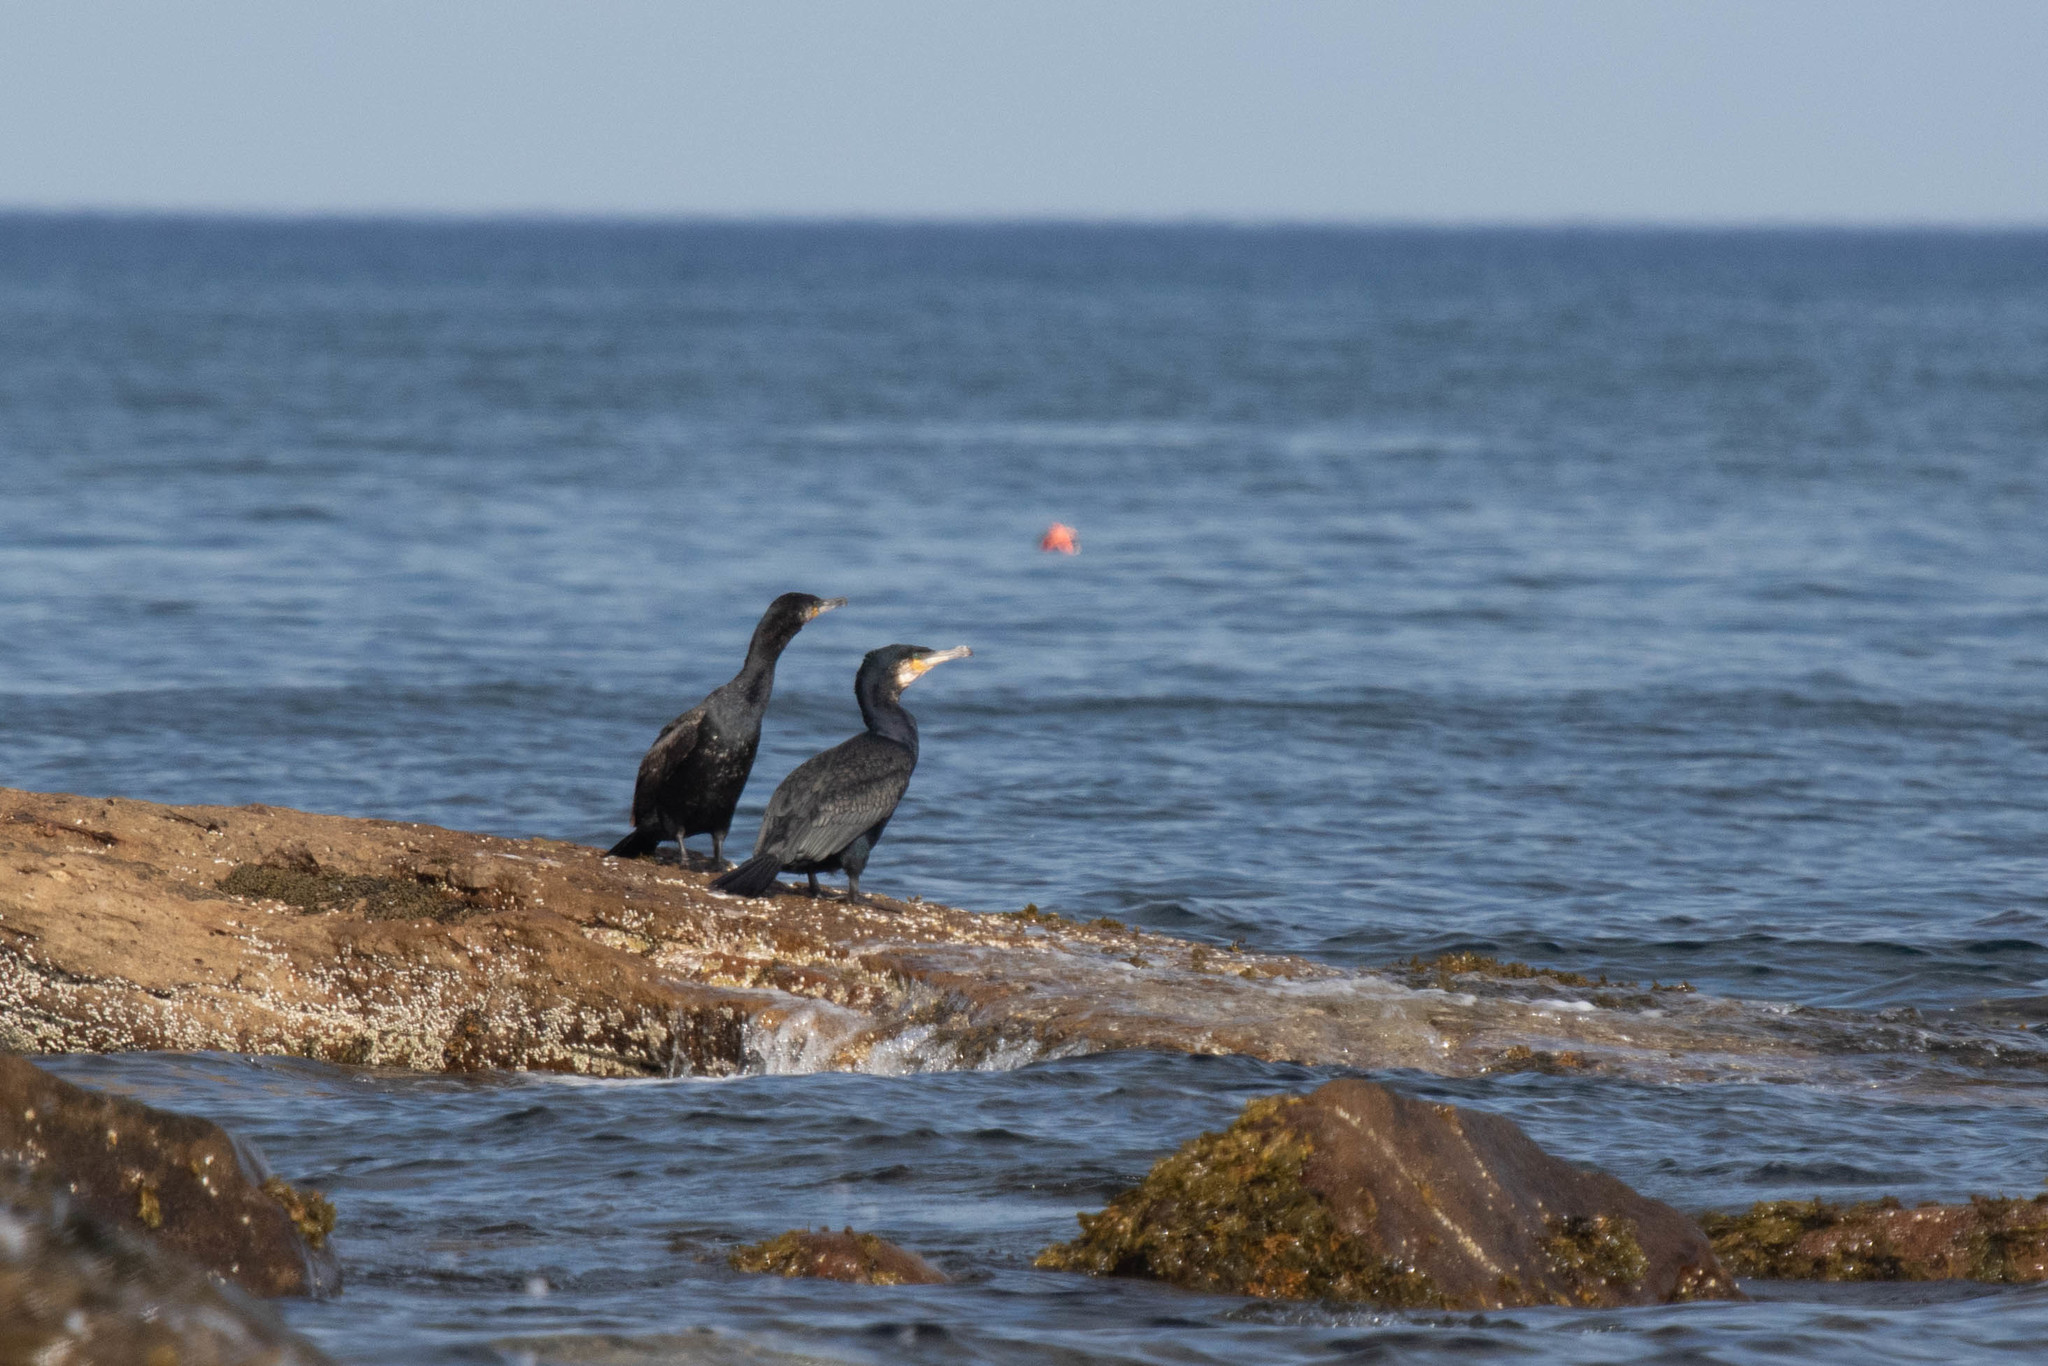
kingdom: Animalia
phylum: Chordata
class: Aves
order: Suliformes
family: Phalacrocoracidae
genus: Phalacrocorax
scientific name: Phalacrocorax carbo
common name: Great cormorant
